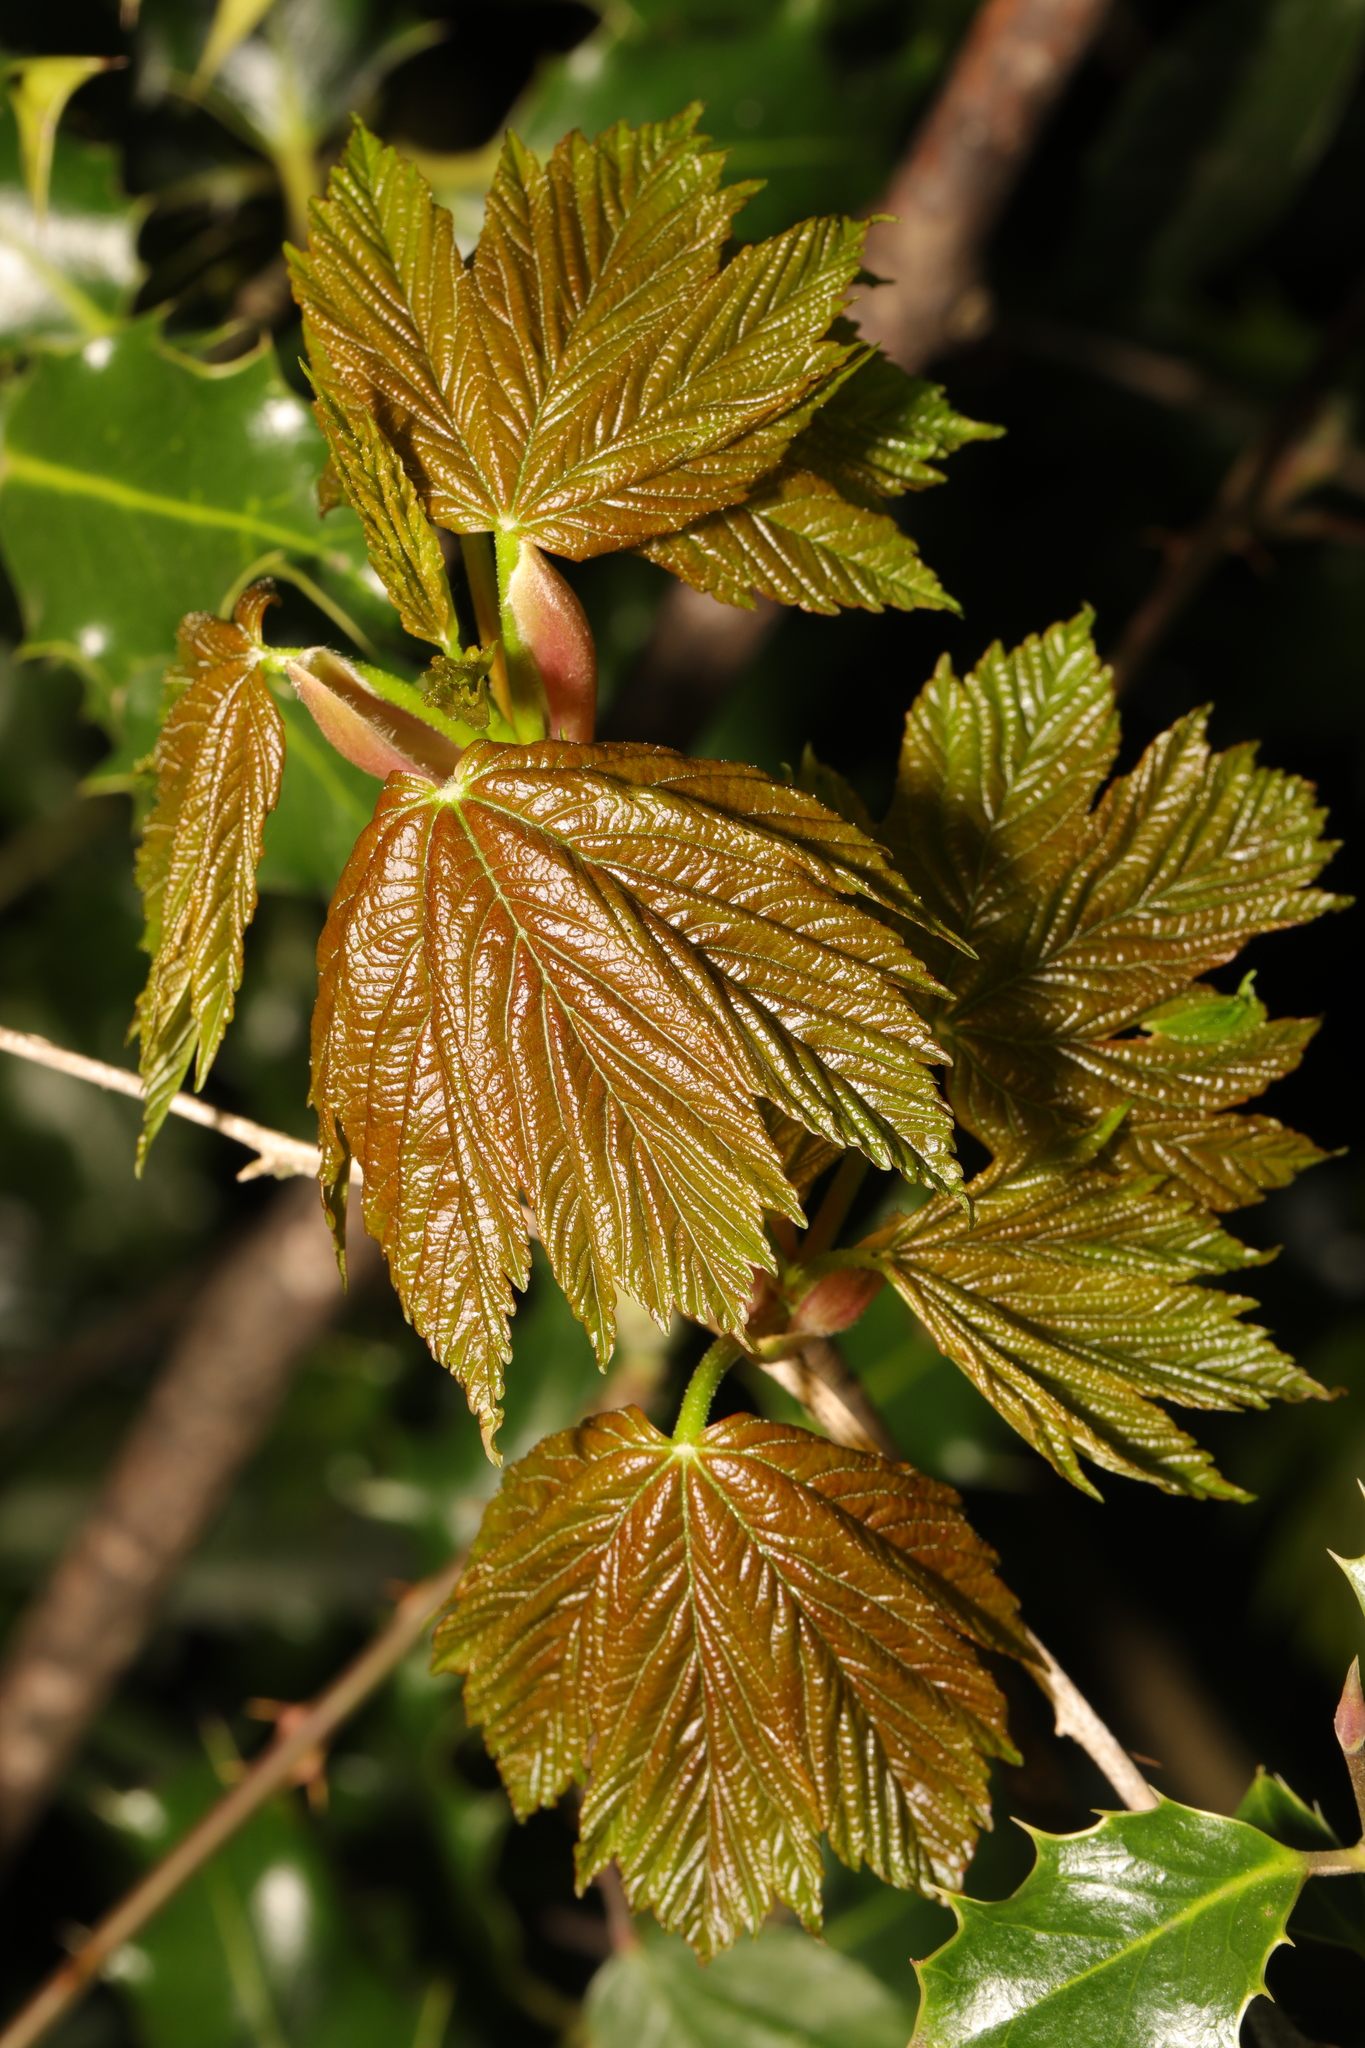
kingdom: Plantae
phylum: Tracheophyta
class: Magnoliopsida
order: Sapindales
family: Sapindaceae
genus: Acer
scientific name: Acer pseudoplatanus
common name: Sycamore
